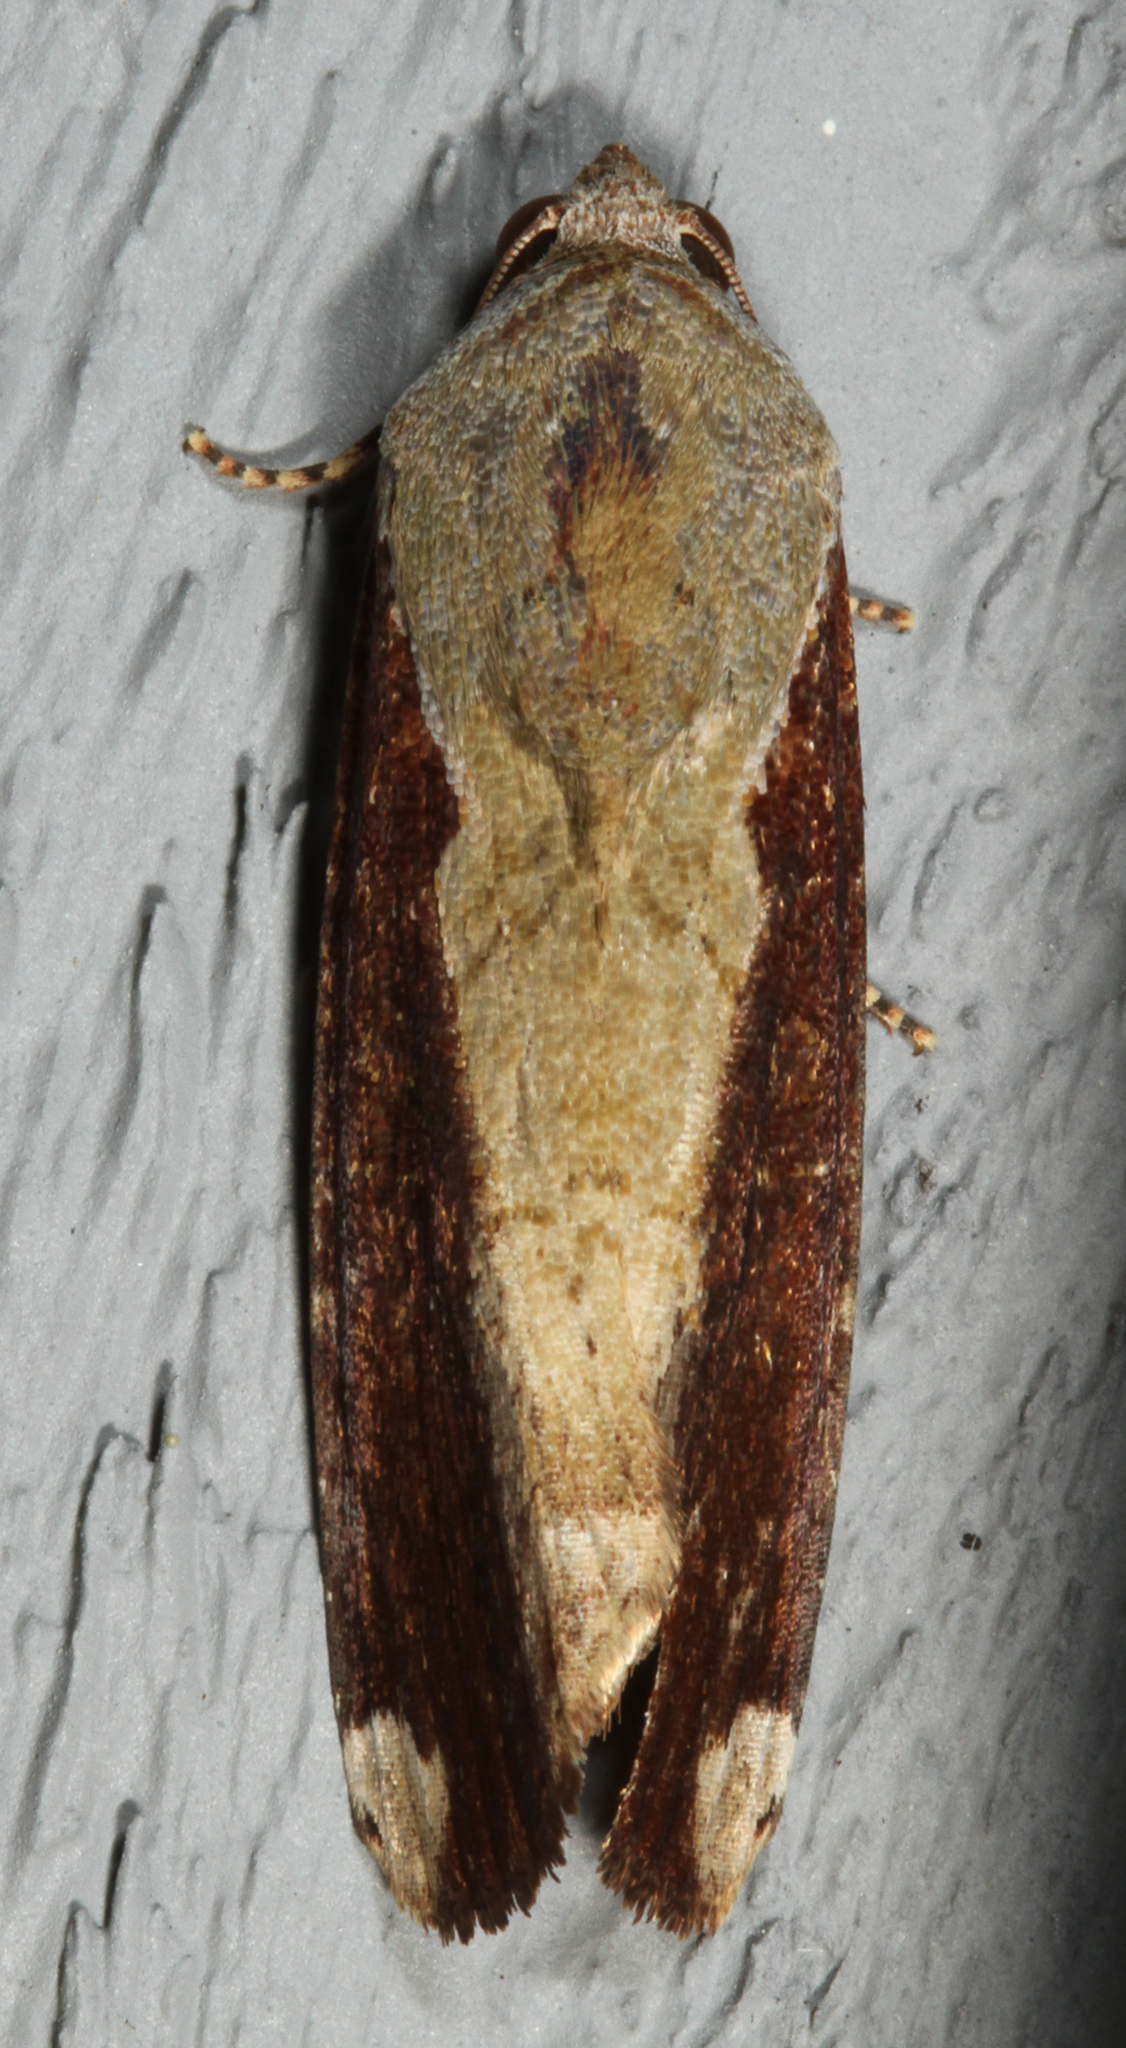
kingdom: Animalia
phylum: Arthropoda
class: Insecta
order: Lepidoptera
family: Noctuidae
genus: Magusa
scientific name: Magusa divaricata
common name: Orb narrow-winged moth
